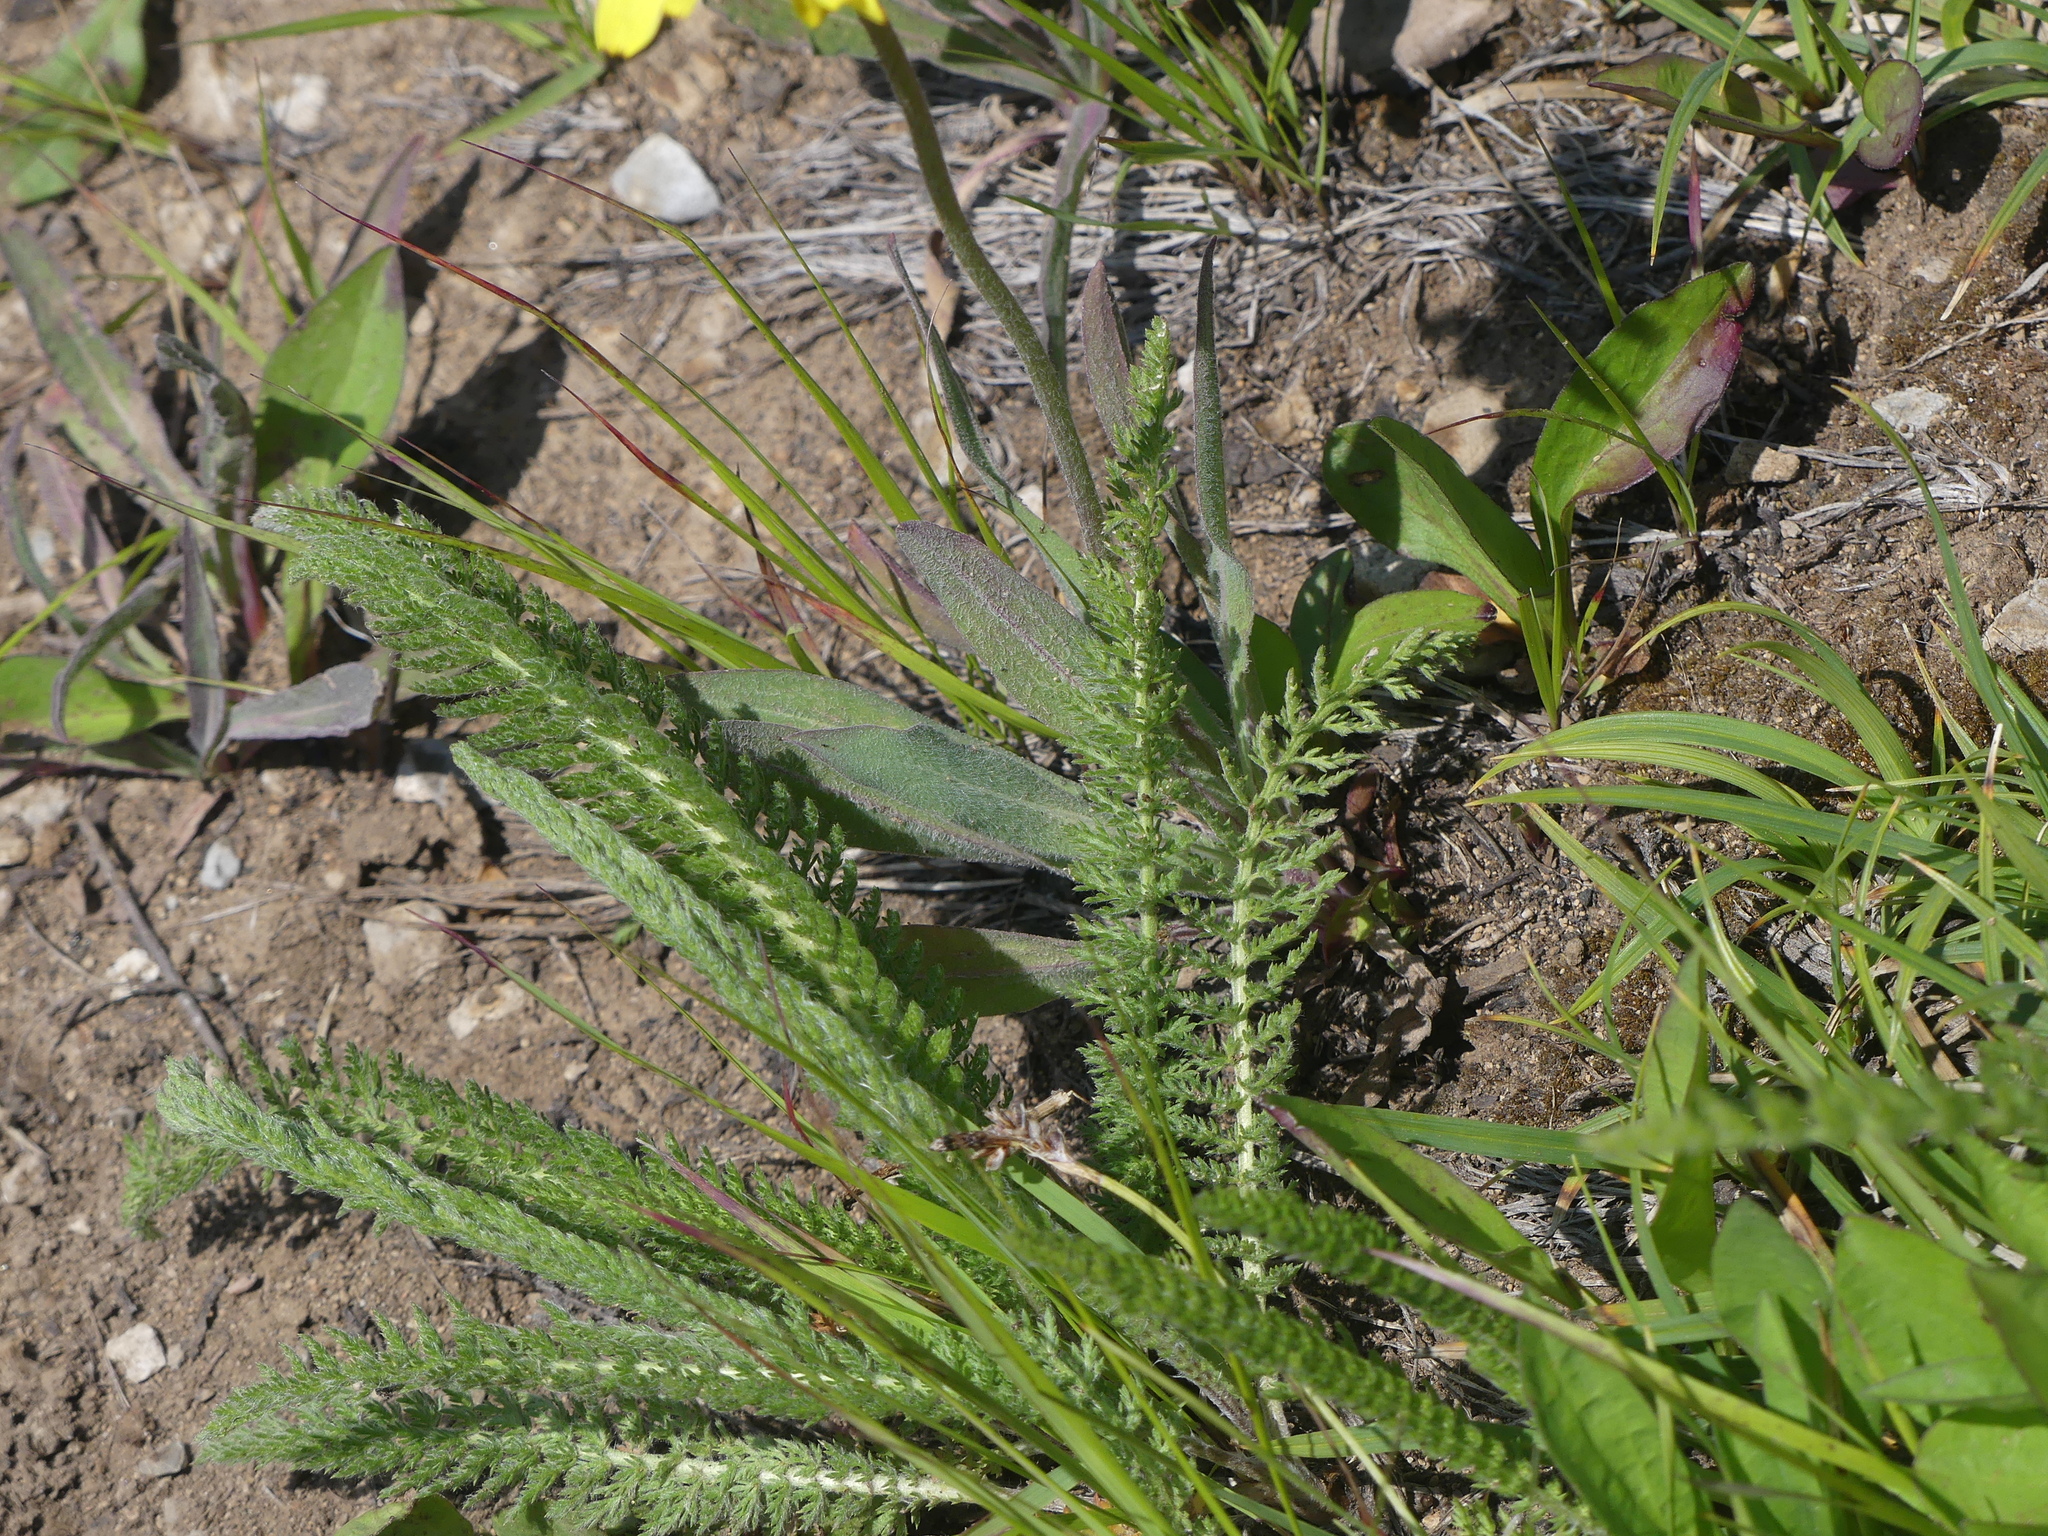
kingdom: Plantae
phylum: Tracheophyta
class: Magnoliopsida
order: Asterales
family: Asteraceae
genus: Achillea
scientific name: Achillea millefolium
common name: Yarrow
